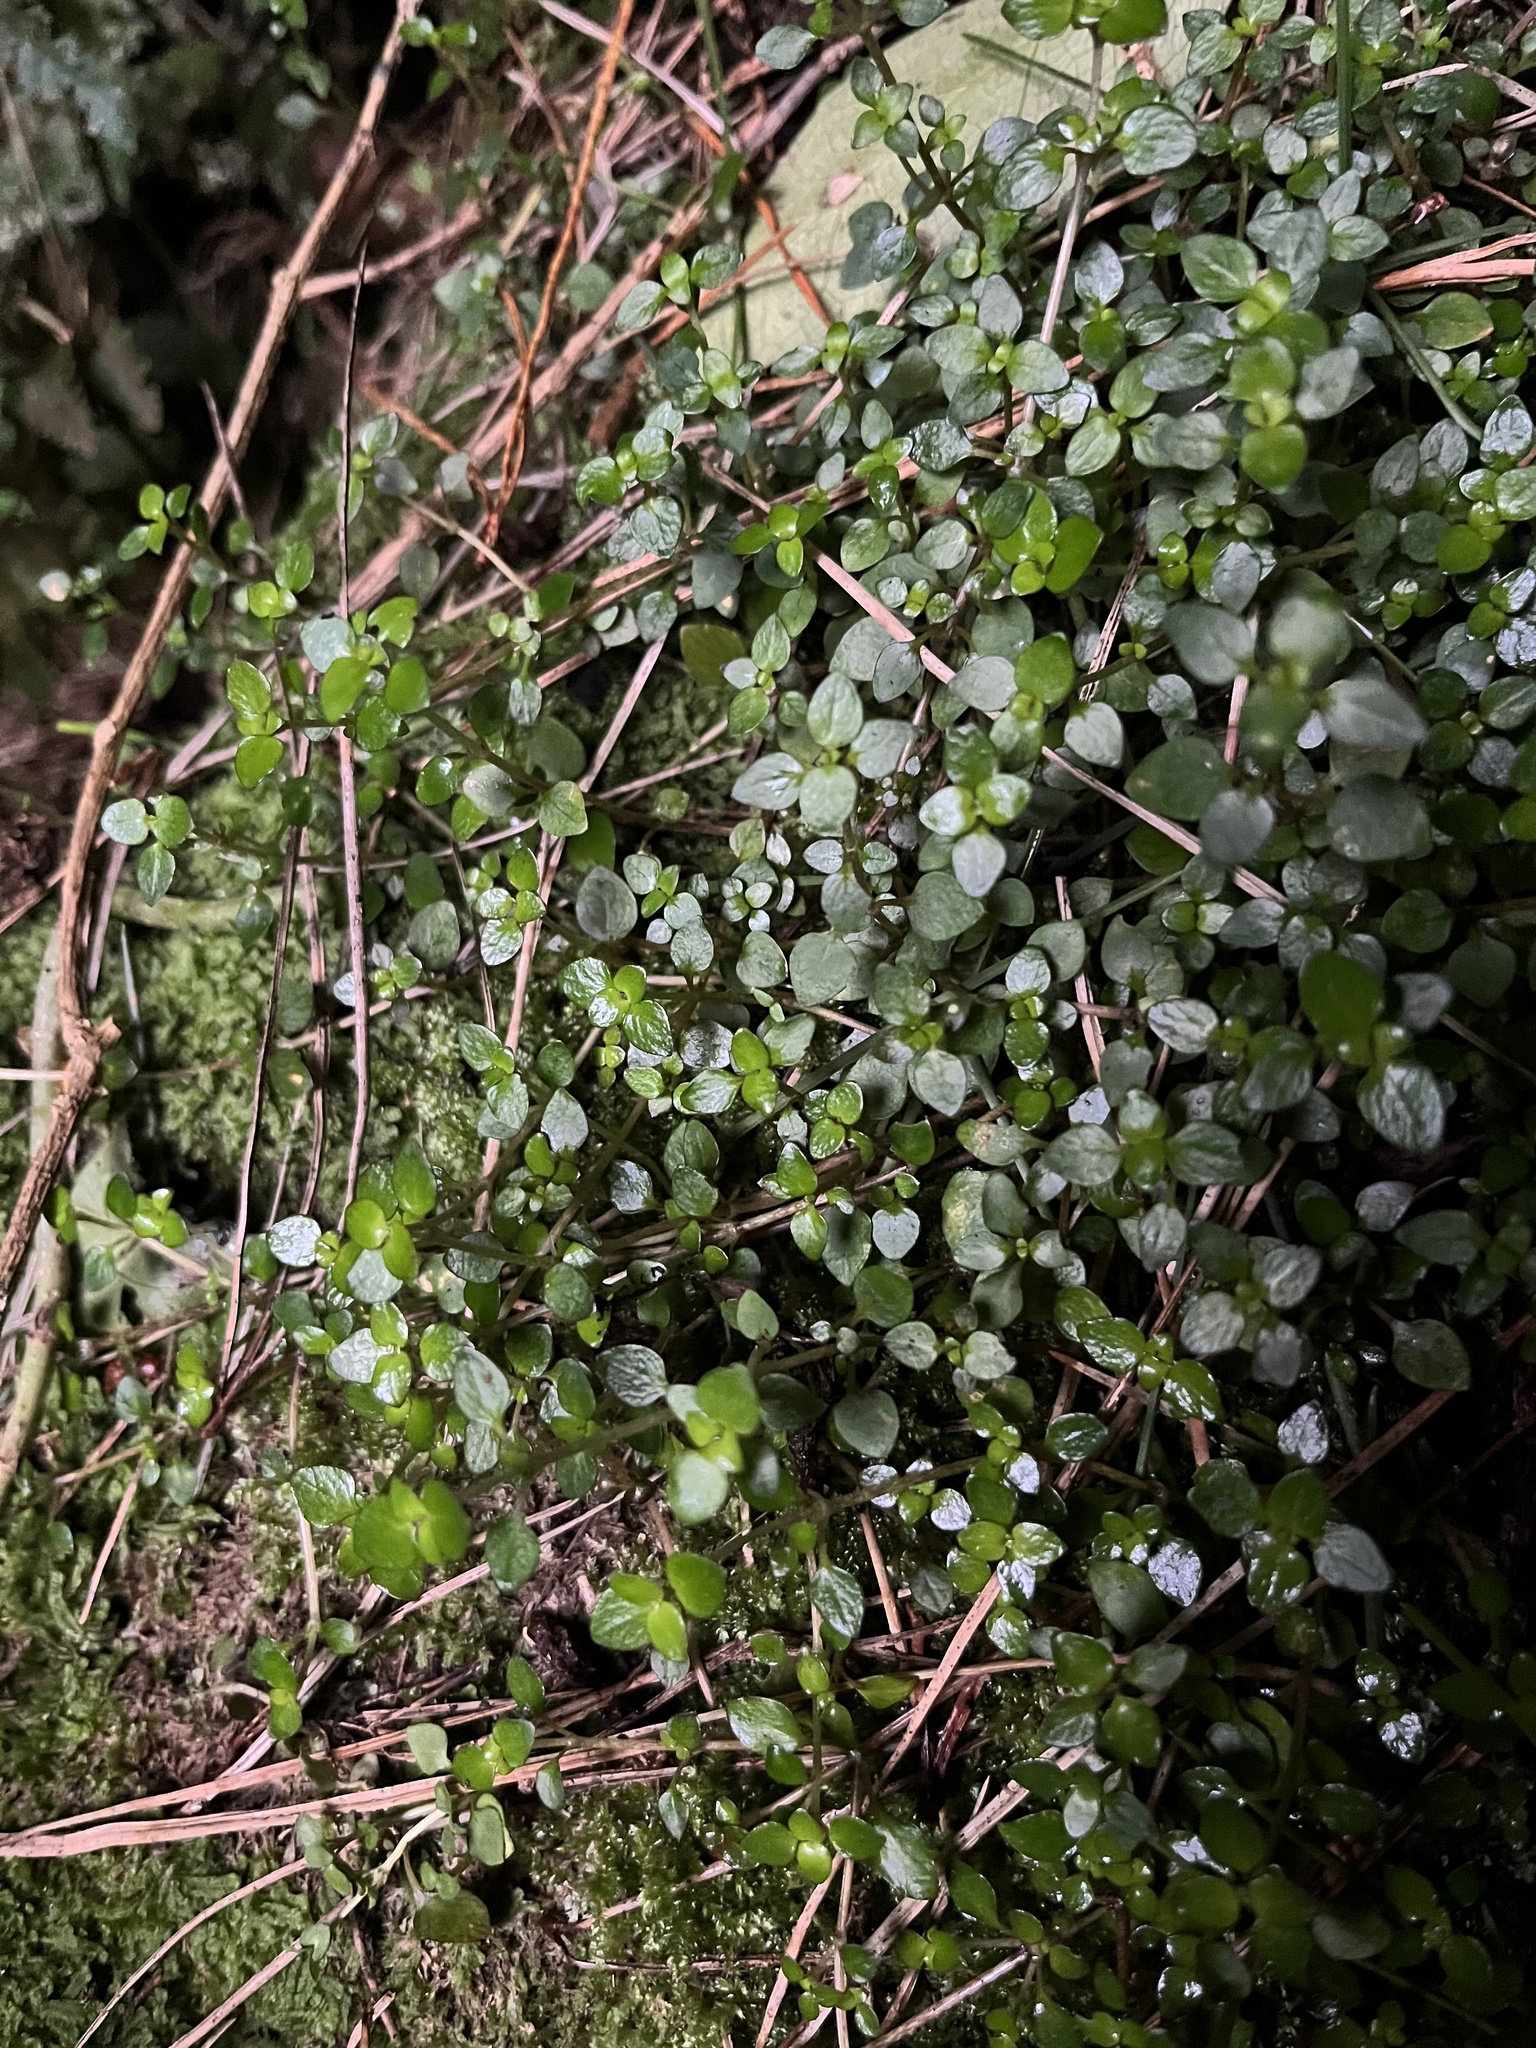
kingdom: Plantae
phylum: Tracheophyta
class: Magnoliopsida
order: Gentianales
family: Rubiaceae
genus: Nertera
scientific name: Nertera granadensis
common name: Beadplant
